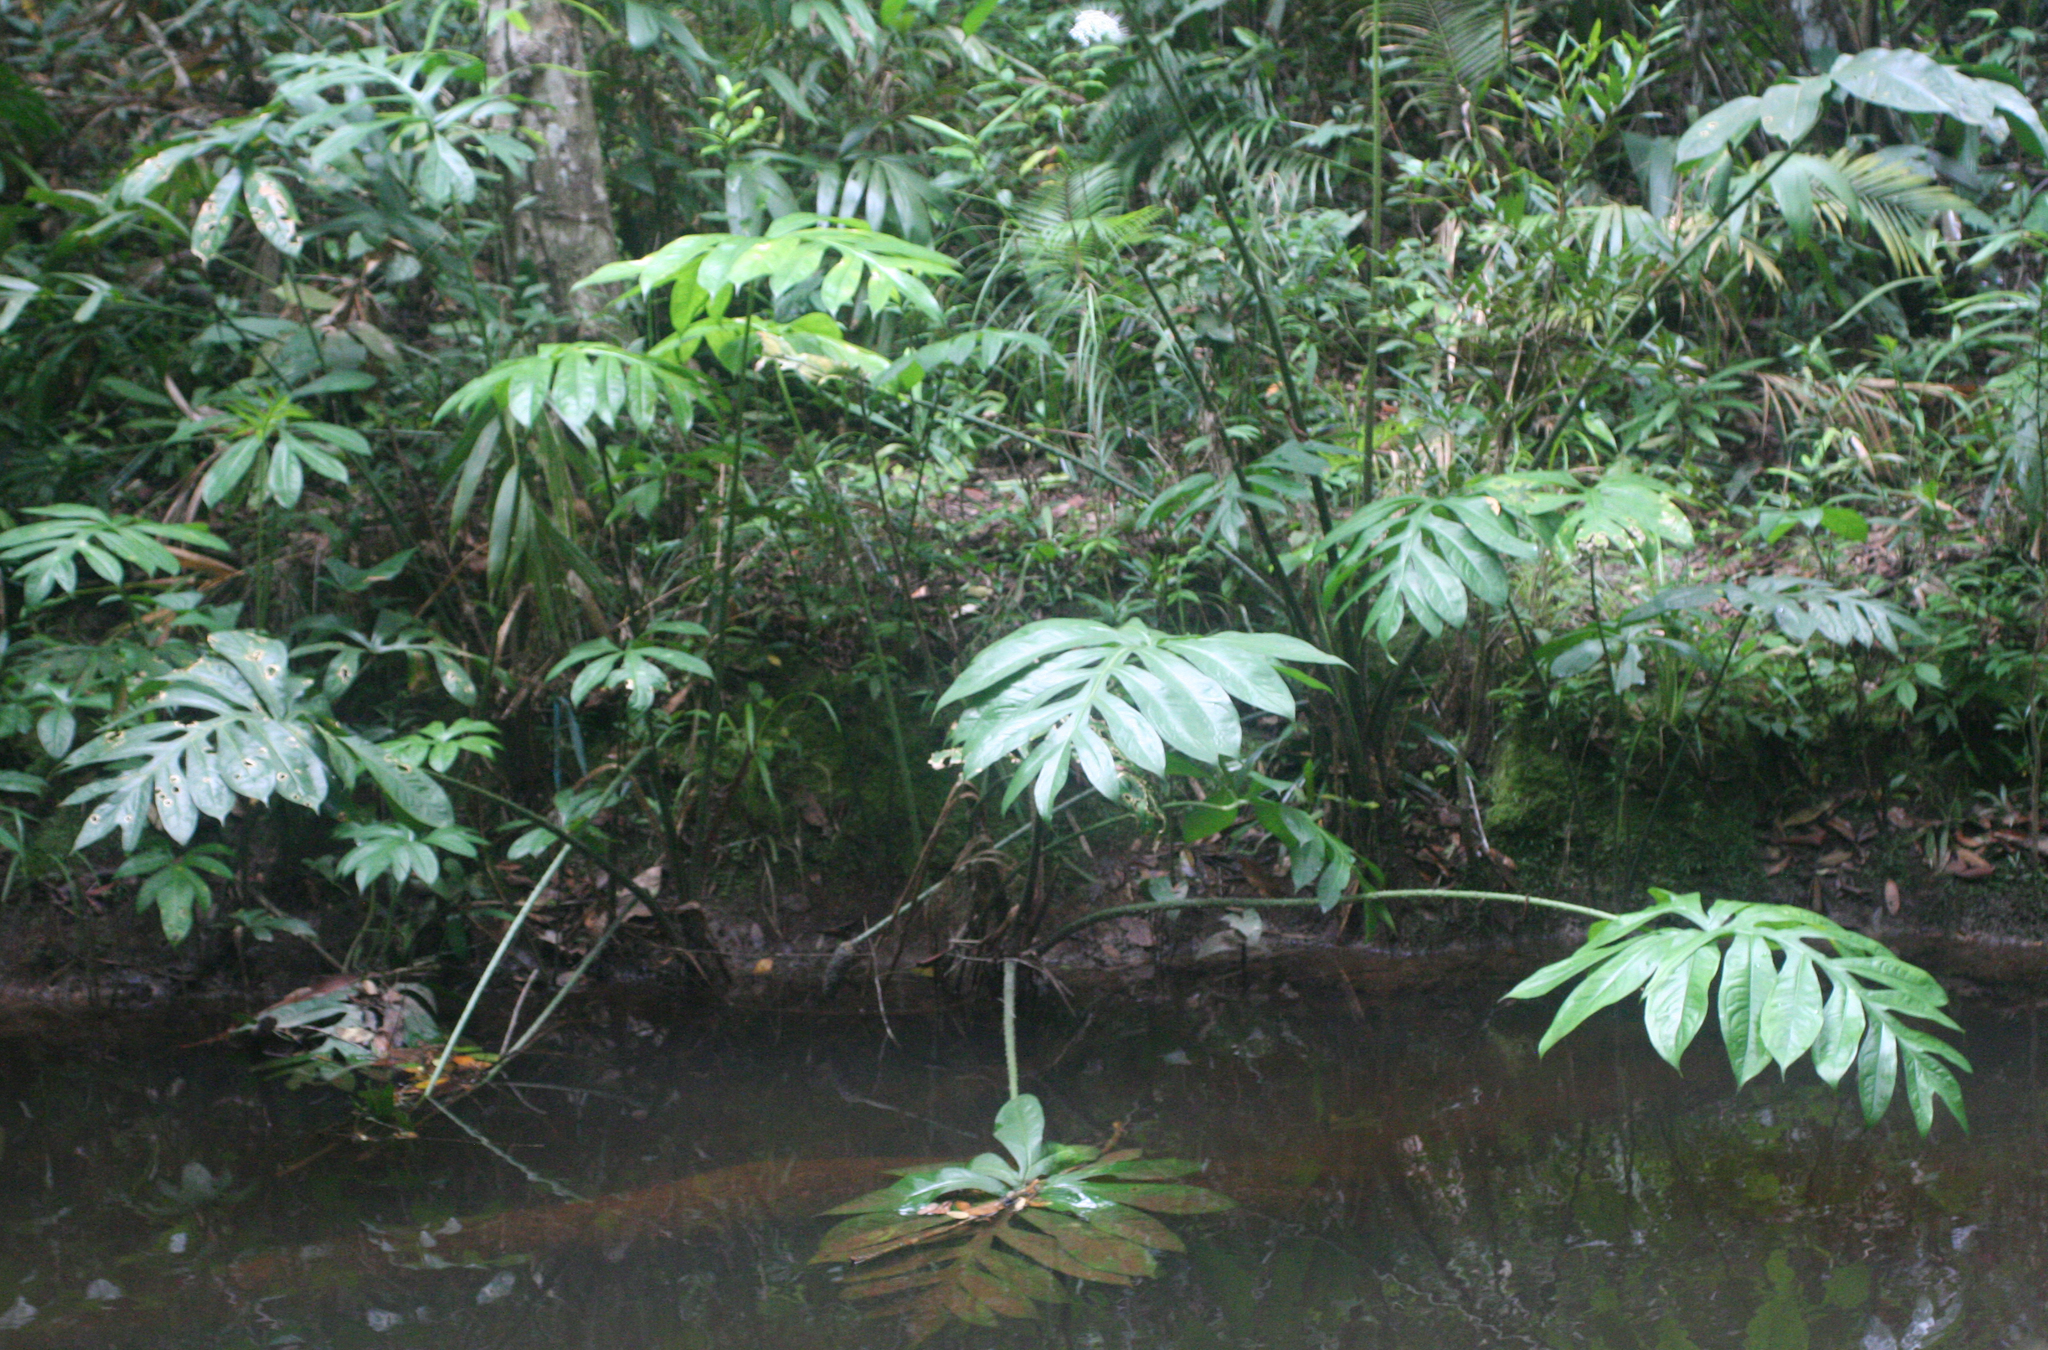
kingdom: Plantae
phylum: Tracheophyta
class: Liliopsida
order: Alismatales
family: Araceae
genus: Lasia
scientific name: Lasia spinosa
